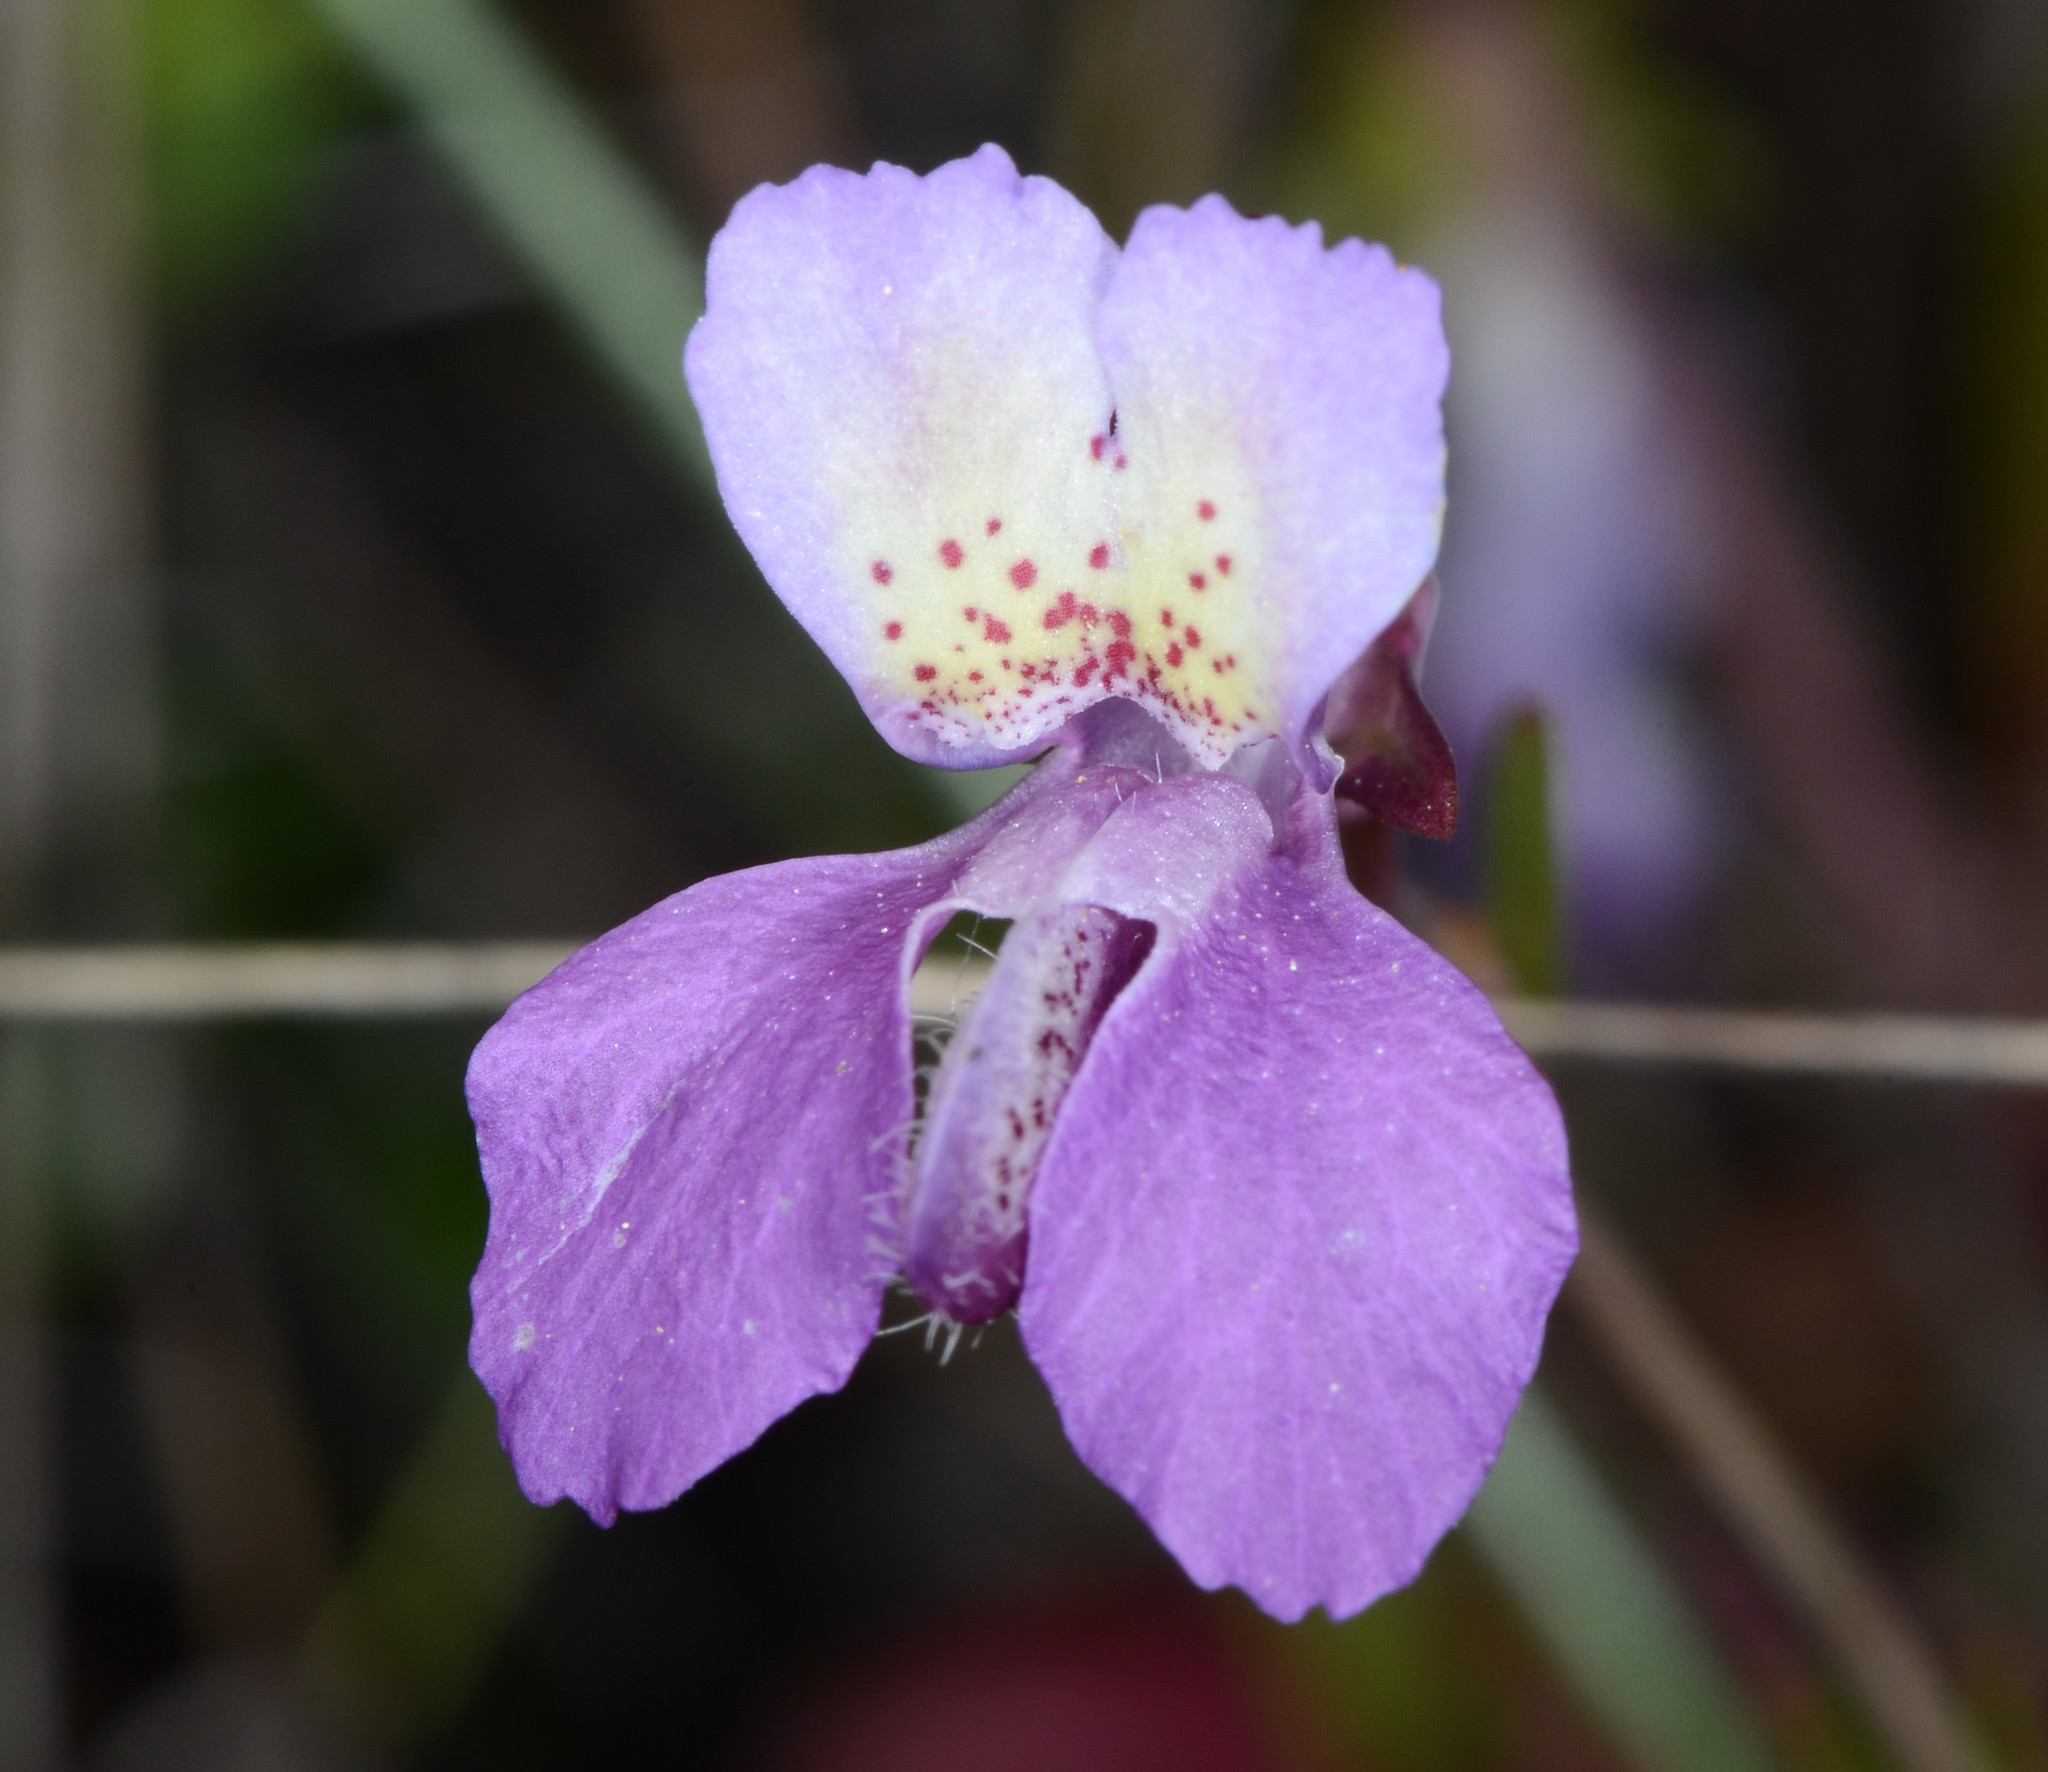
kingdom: Plantae
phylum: Tracheophyta
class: Magnoliopsida
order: Lamiales
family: Plantaginaceae
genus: Collinsia
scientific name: Collinsia sparsiflora
